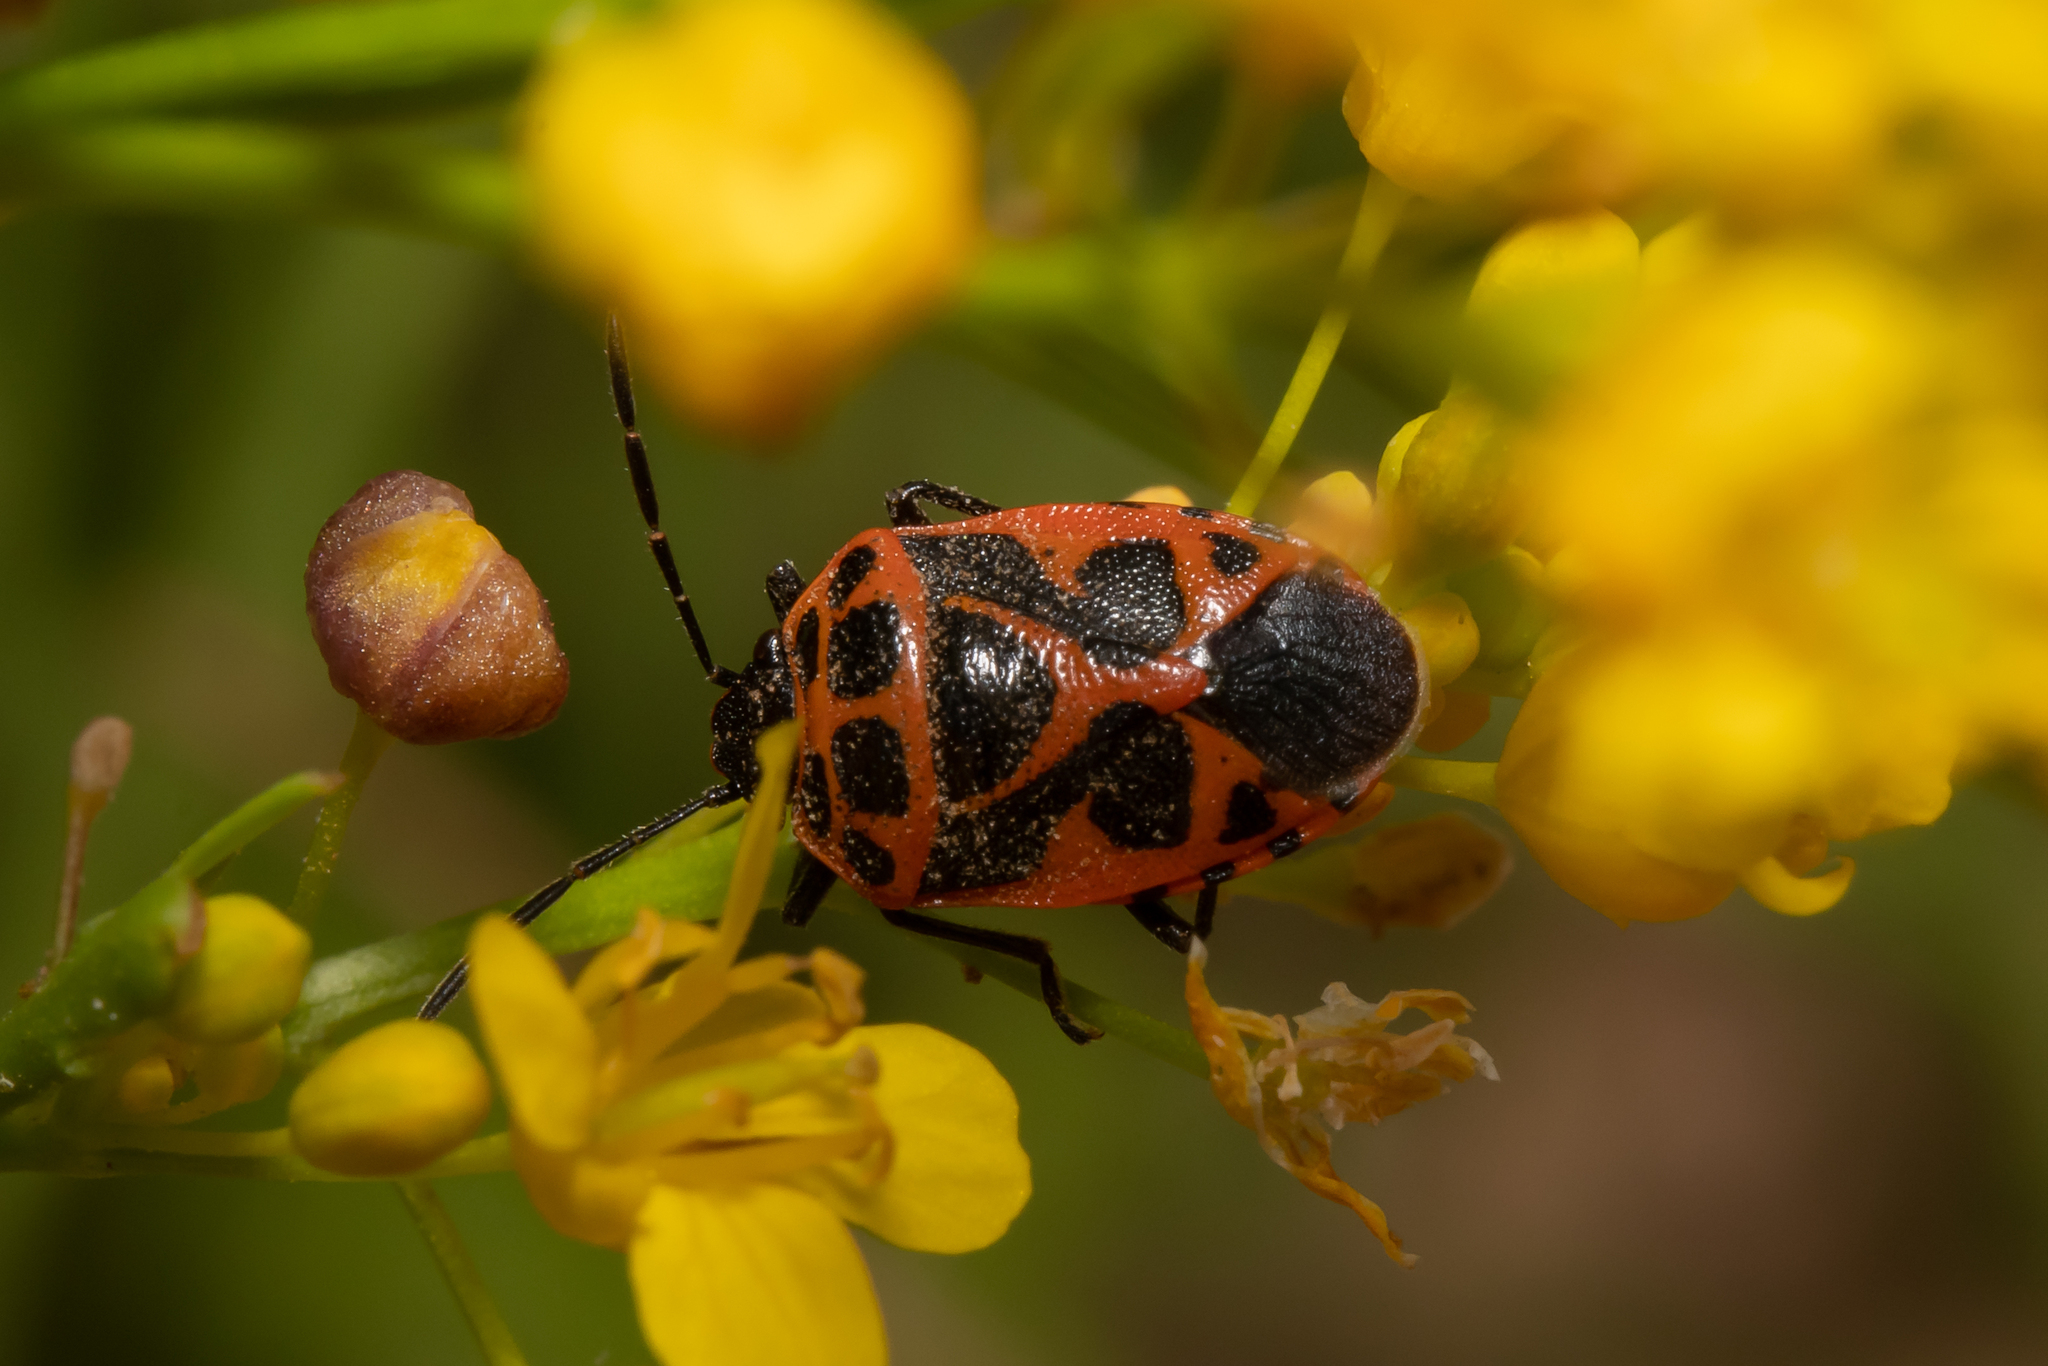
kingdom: Animalia
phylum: Arthropoda
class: Insecta
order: Hemiptera
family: Pentatomidae
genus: Eurydema
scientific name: Eurydema dominulus
